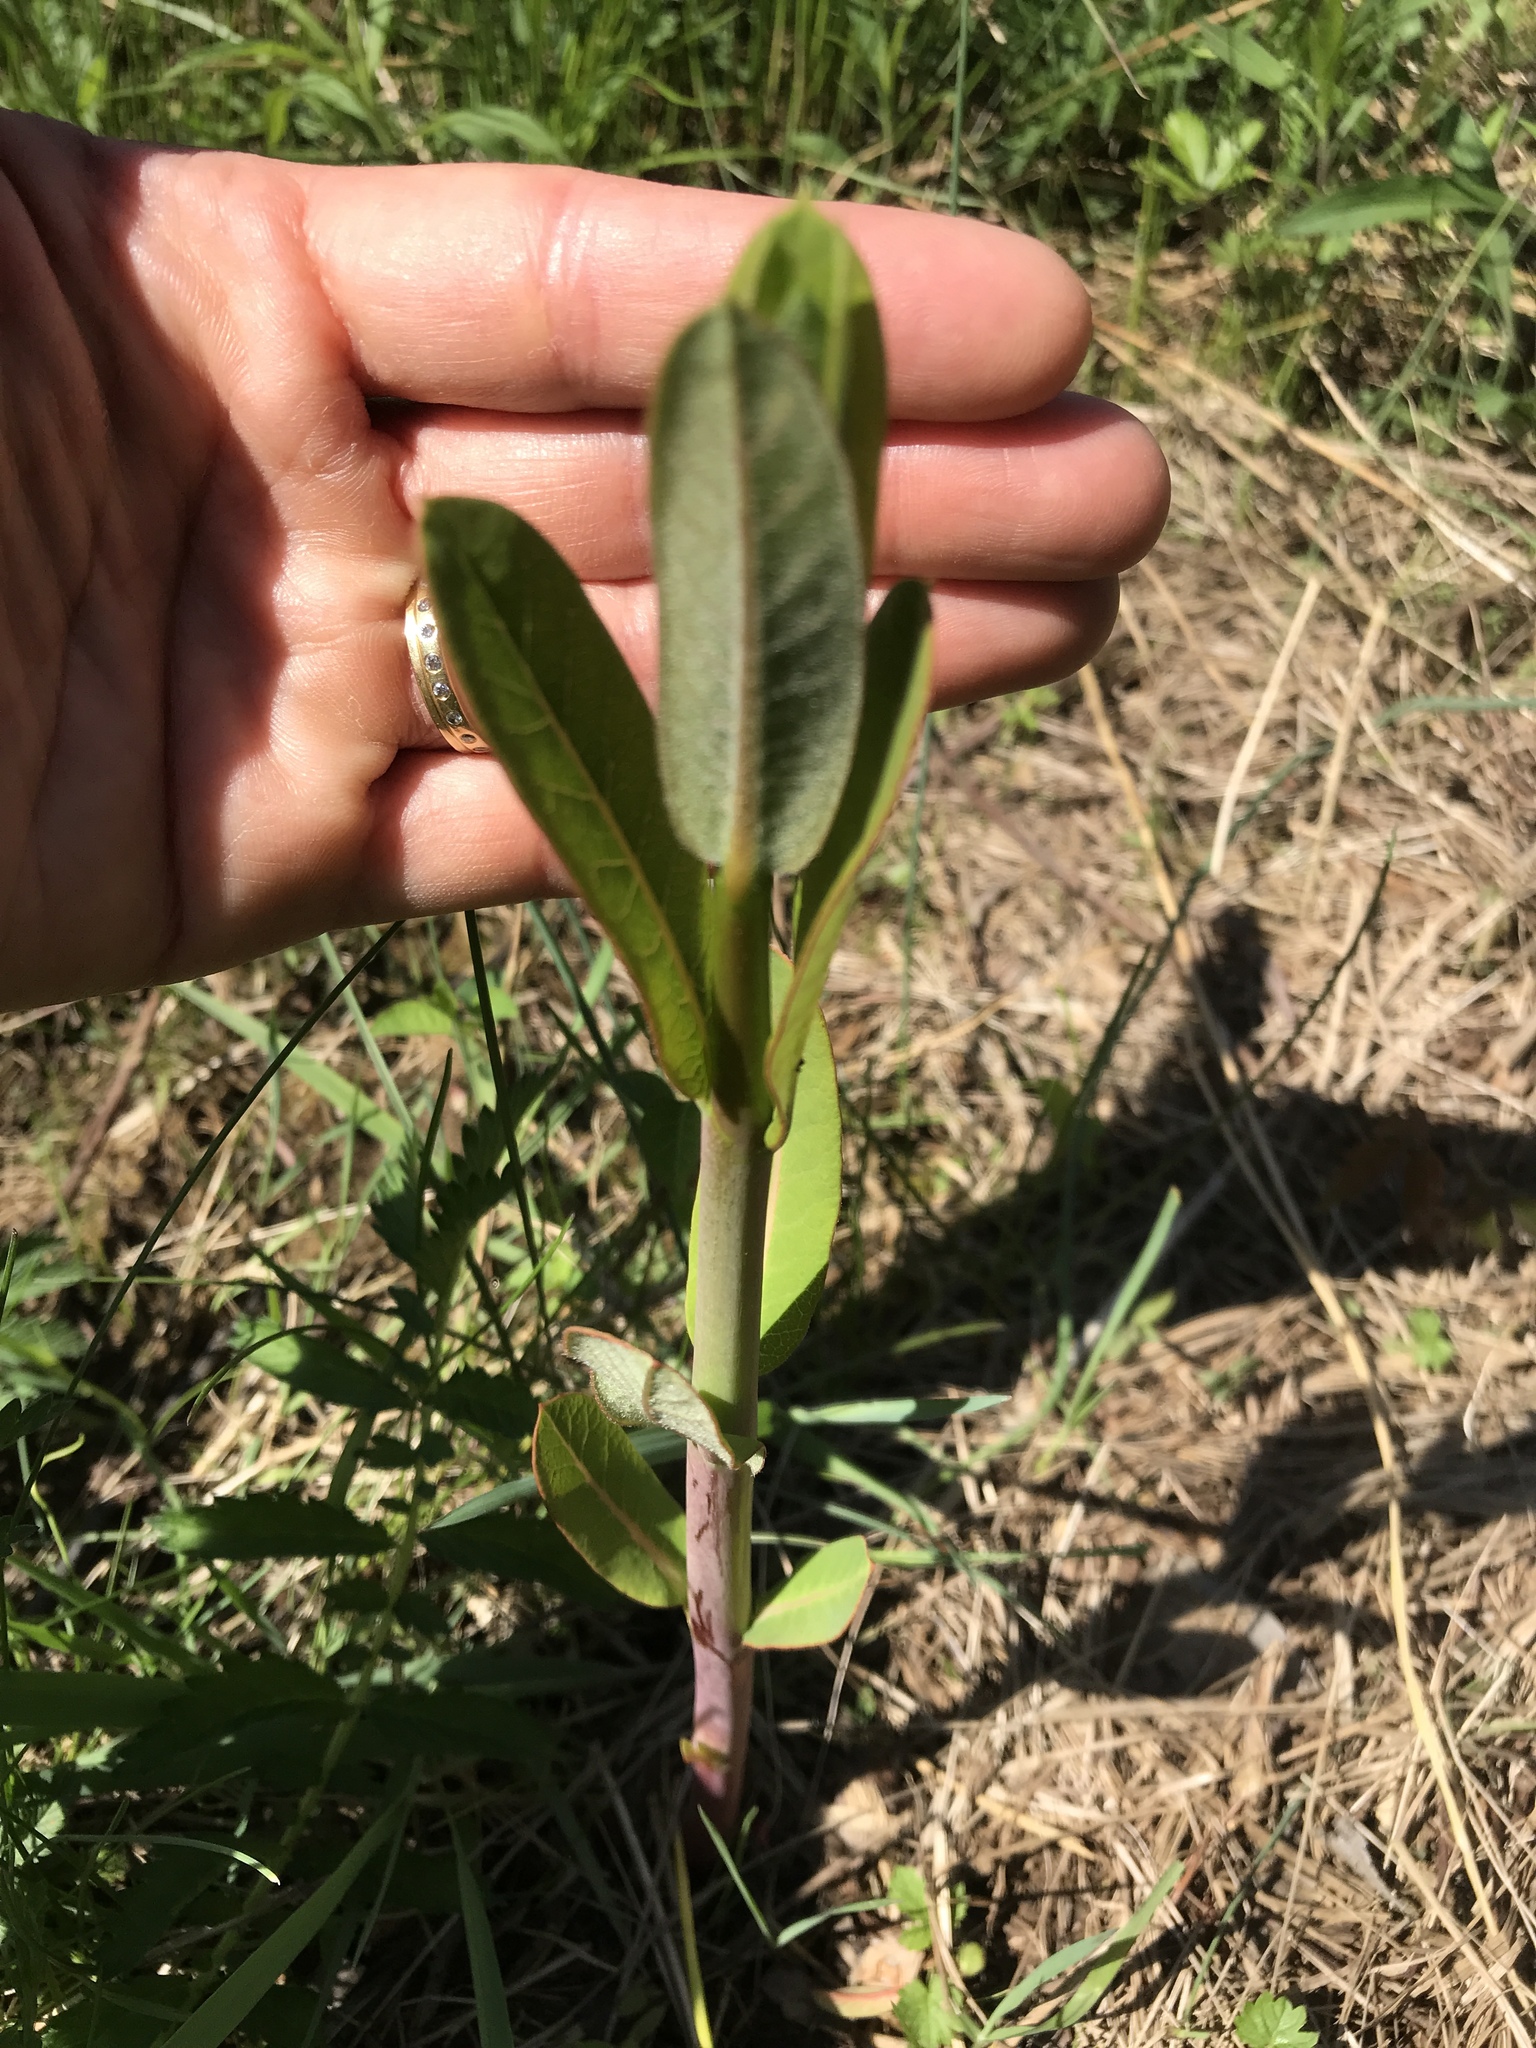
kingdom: Plantae
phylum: Tracheophyta
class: Magnoliopsida
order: Gentianales
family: Apocynaceae
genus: Asclepias
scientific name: Asclepias syriaca
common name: Common milkweed
